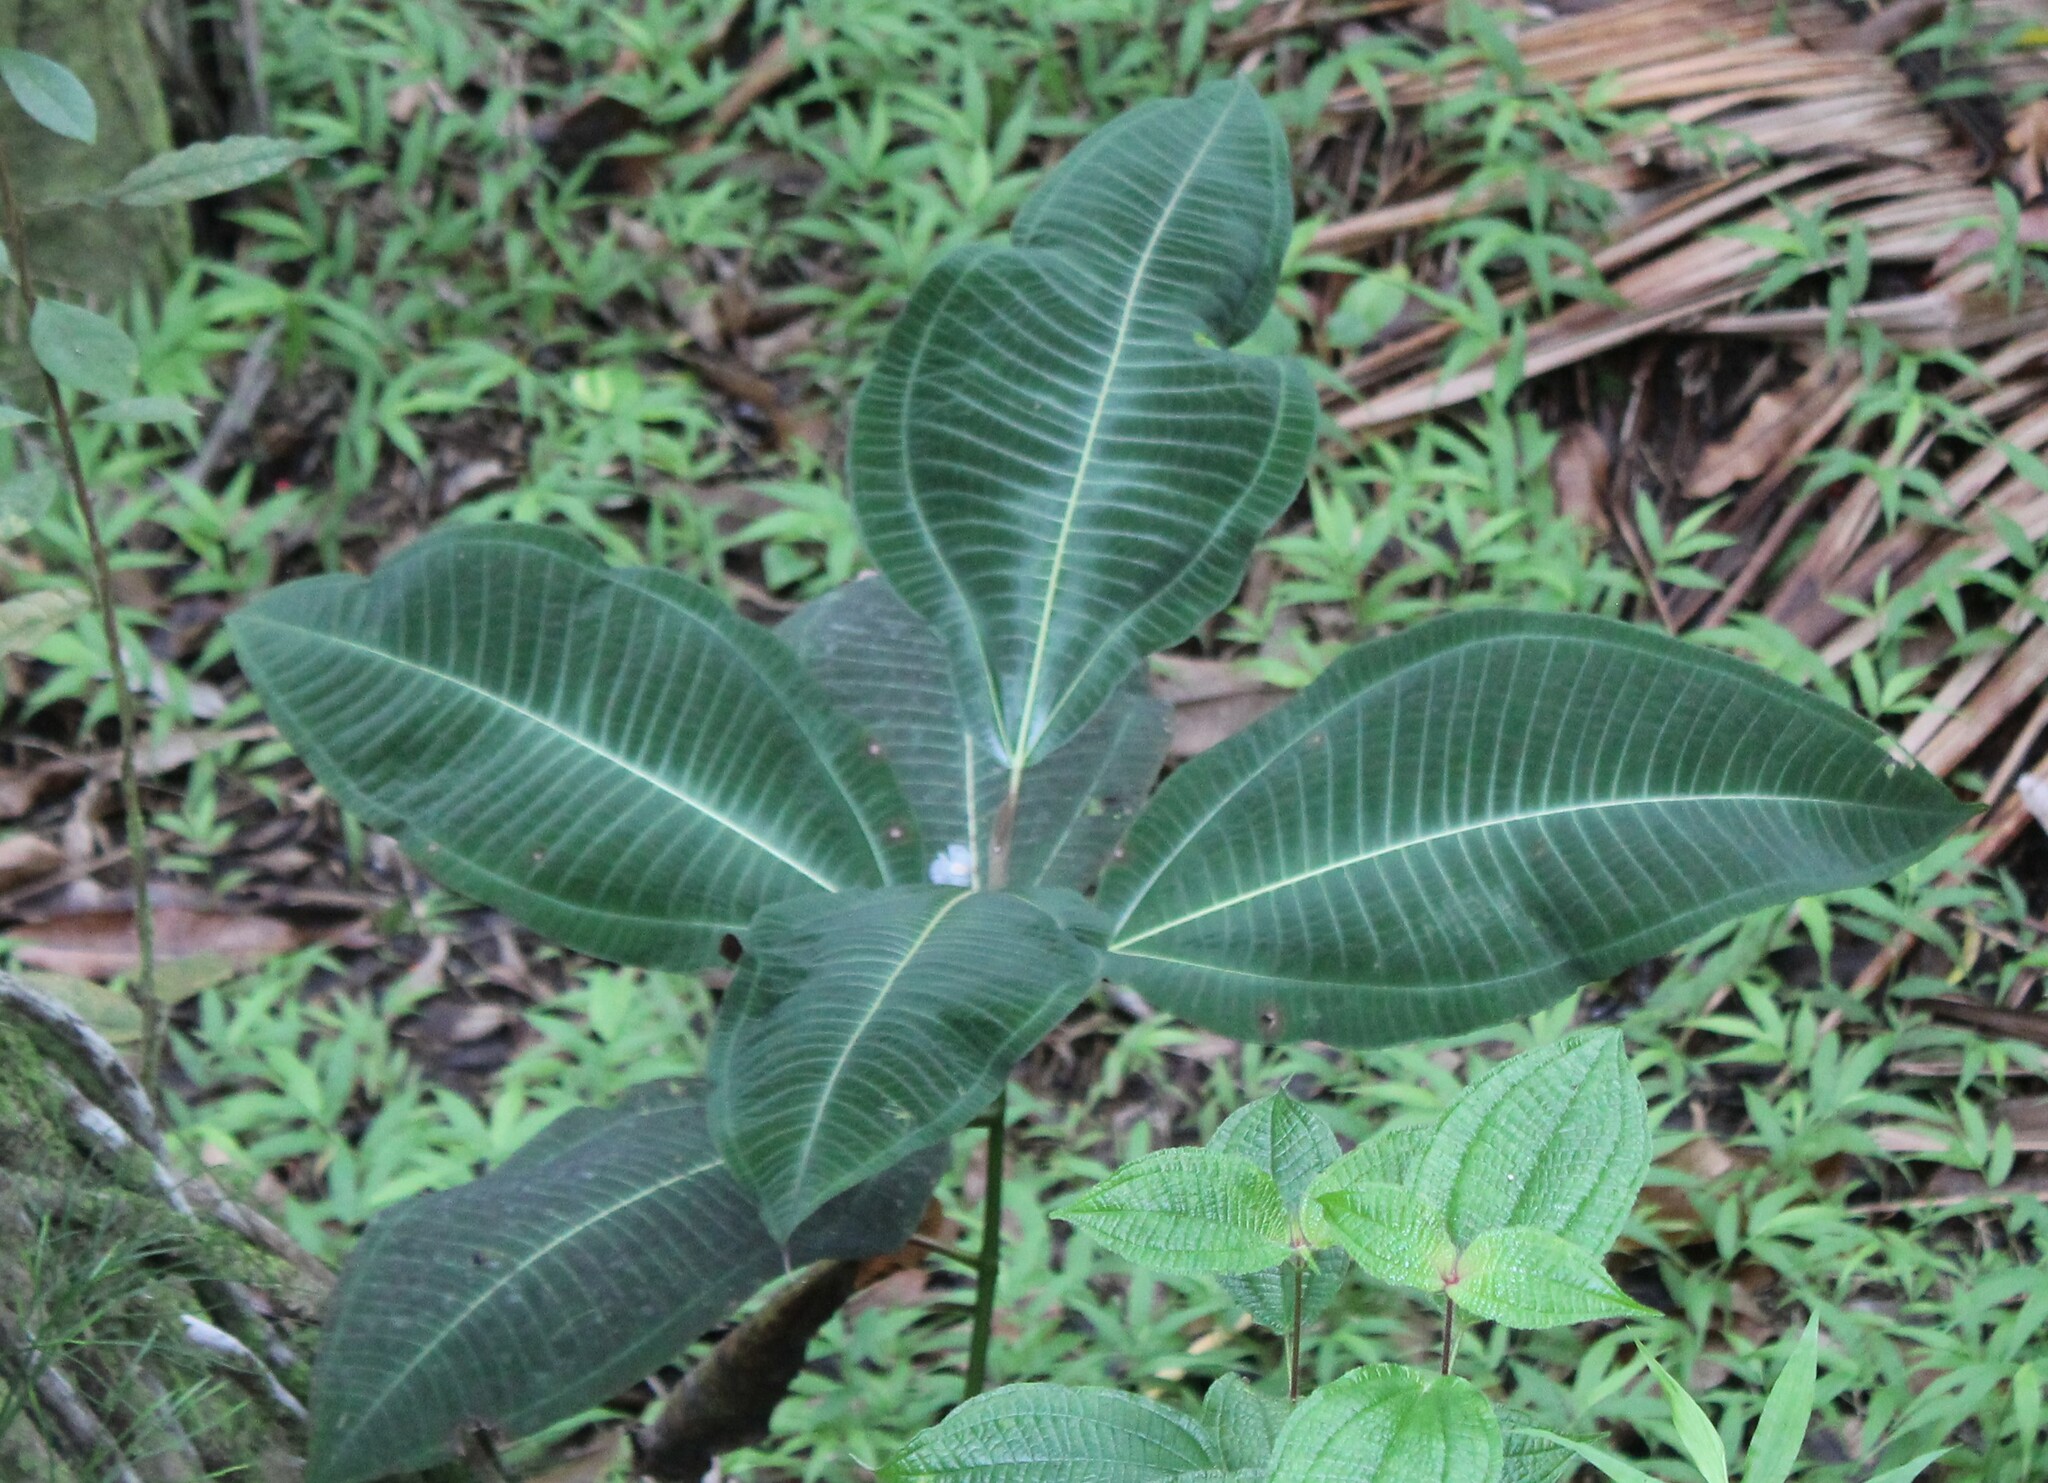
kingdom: Plantae
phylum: Tracheophyta
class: Magnoliopsida
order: Myrtales
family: Melastomataceae
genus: Miconia
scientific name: Miconia calvescens
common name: Purple plague
